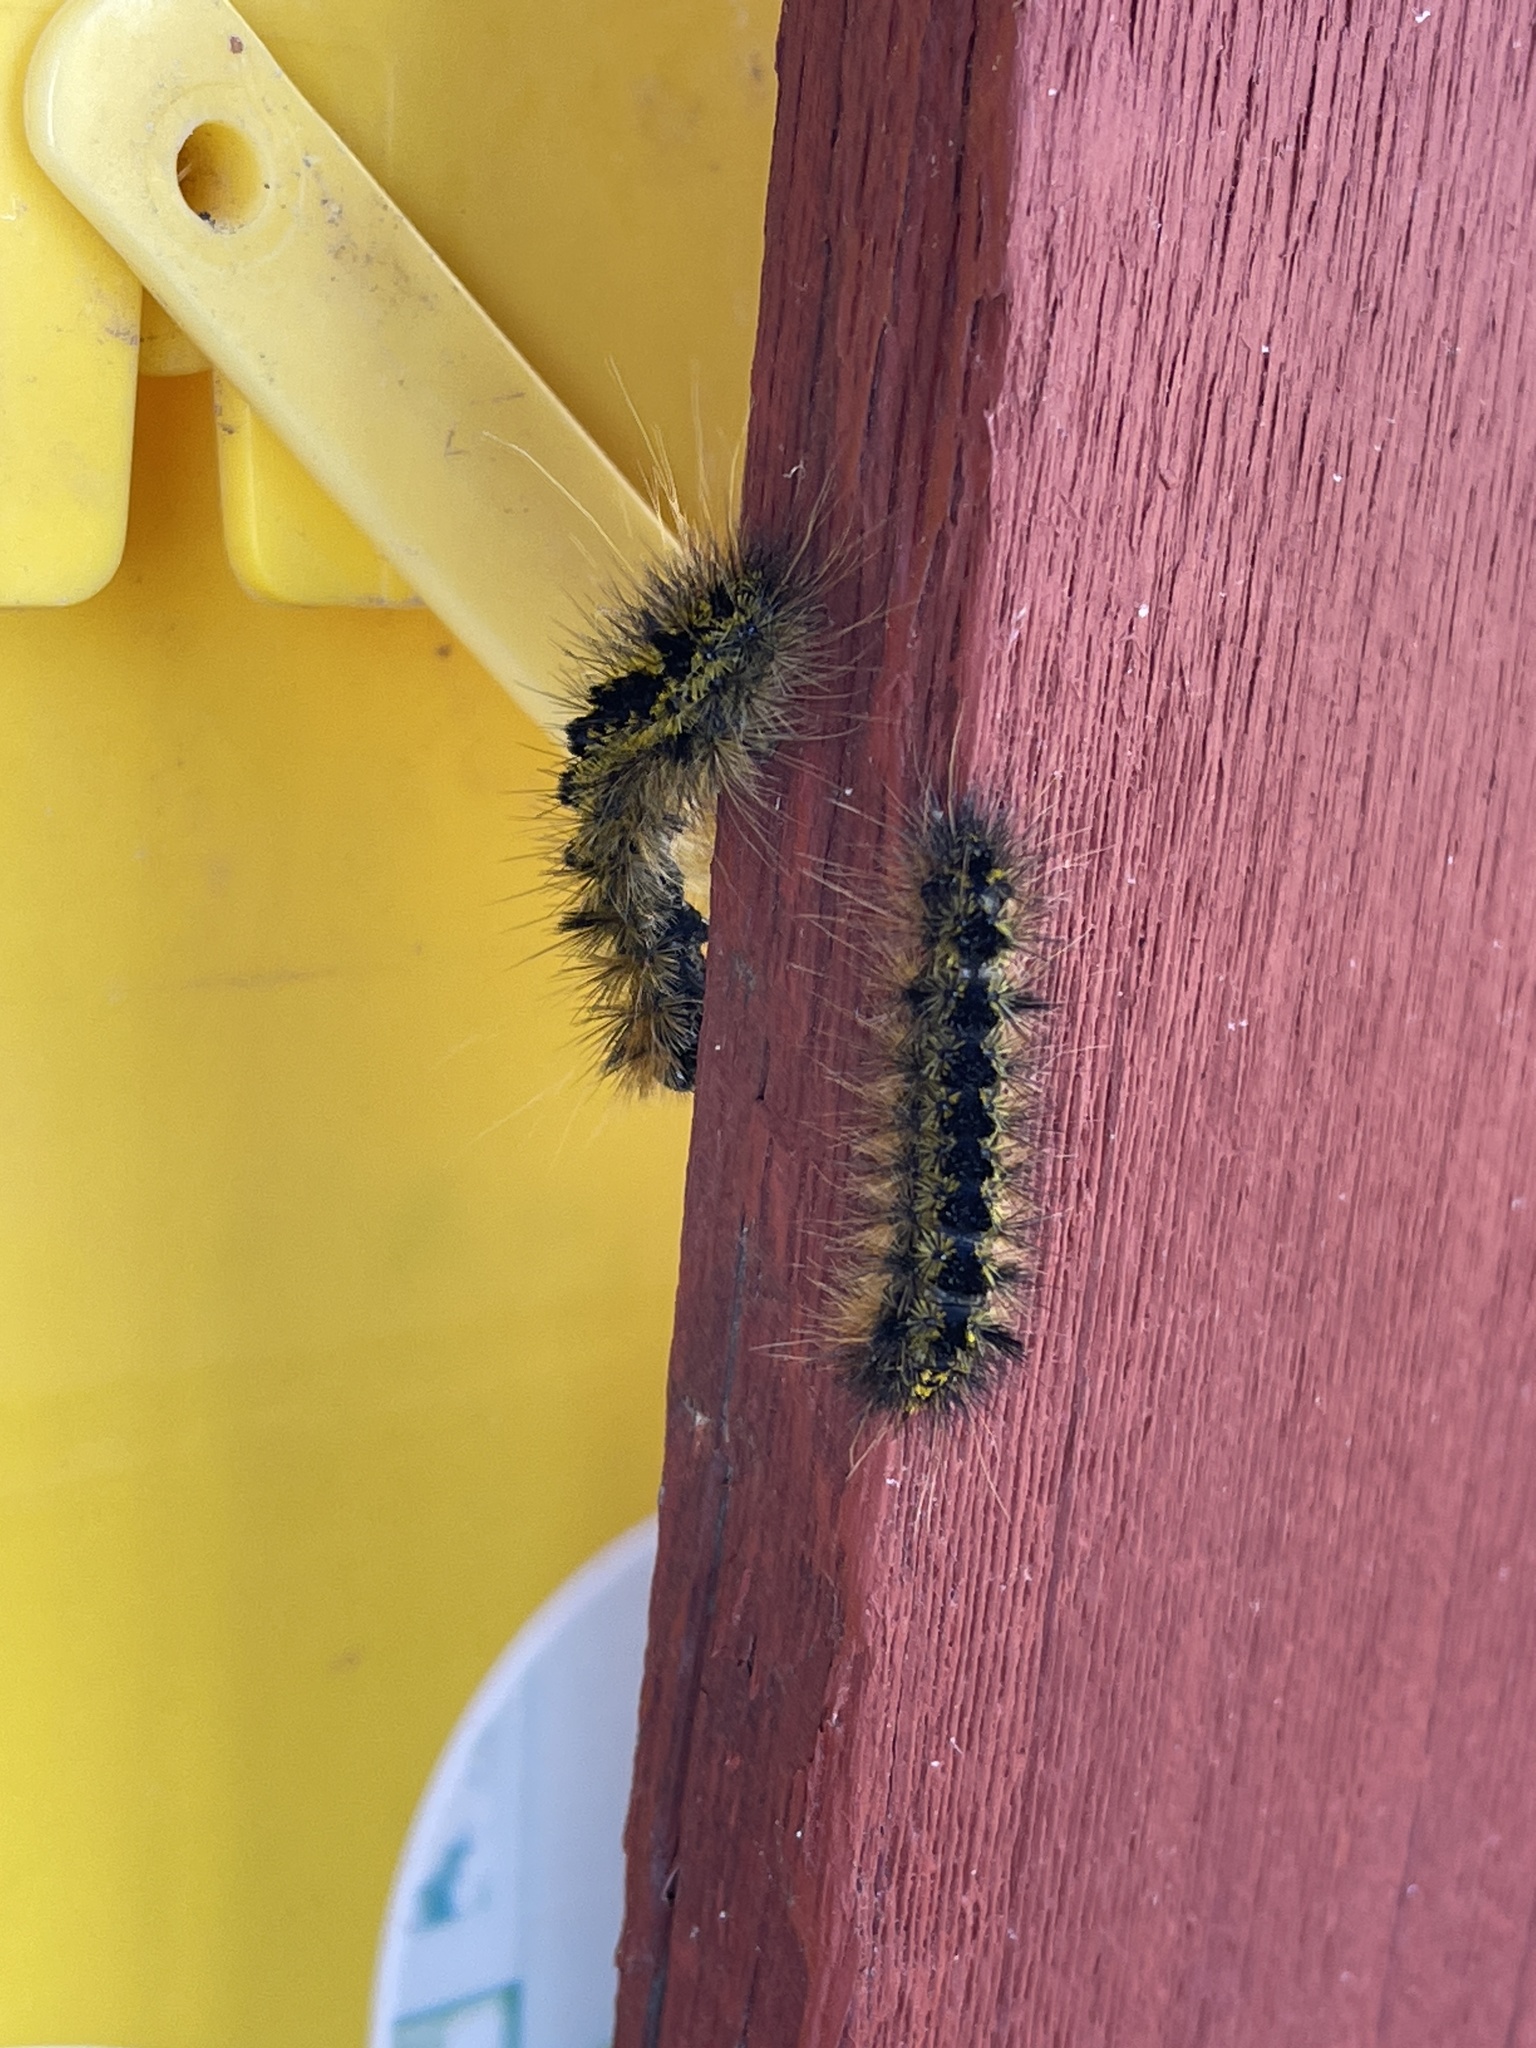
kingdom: Animalia
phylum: Arthropoda
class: Insecta
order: Lepidoptera
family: Erebidae
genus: Lophocampa
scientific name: Lophocampa argentata
